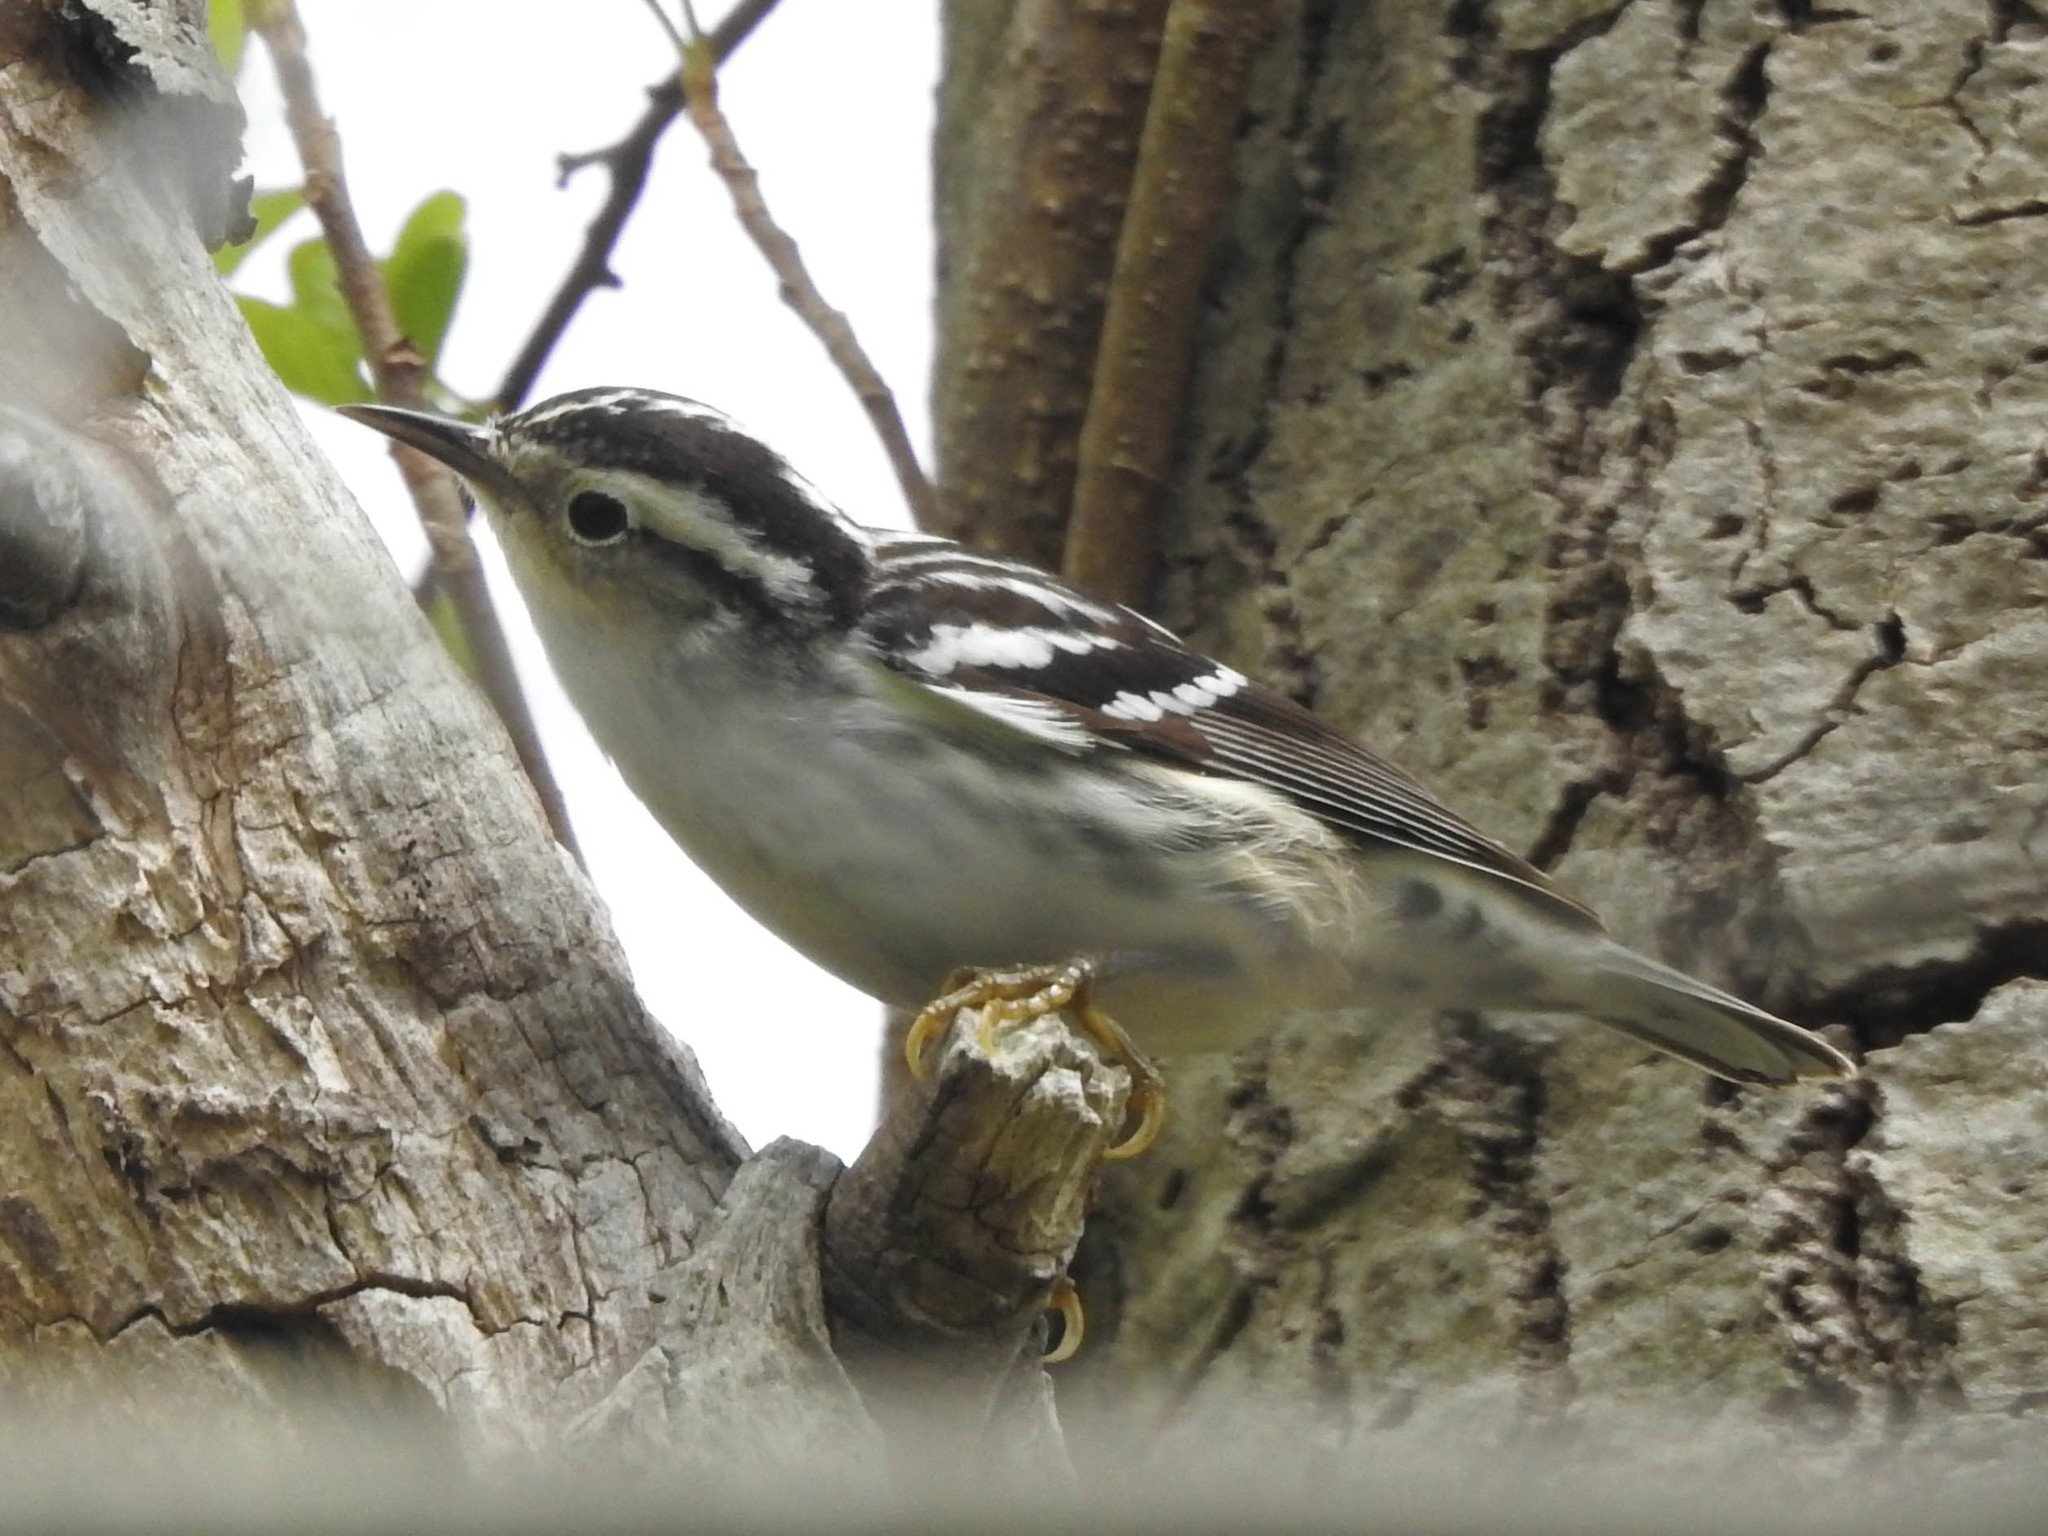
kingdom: Animalia
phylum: Chordata
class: Aves
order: Passeriformes
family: Parulidae
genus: Mniotilta
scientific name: Mniotilta varia
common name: Black-and-white warbler
